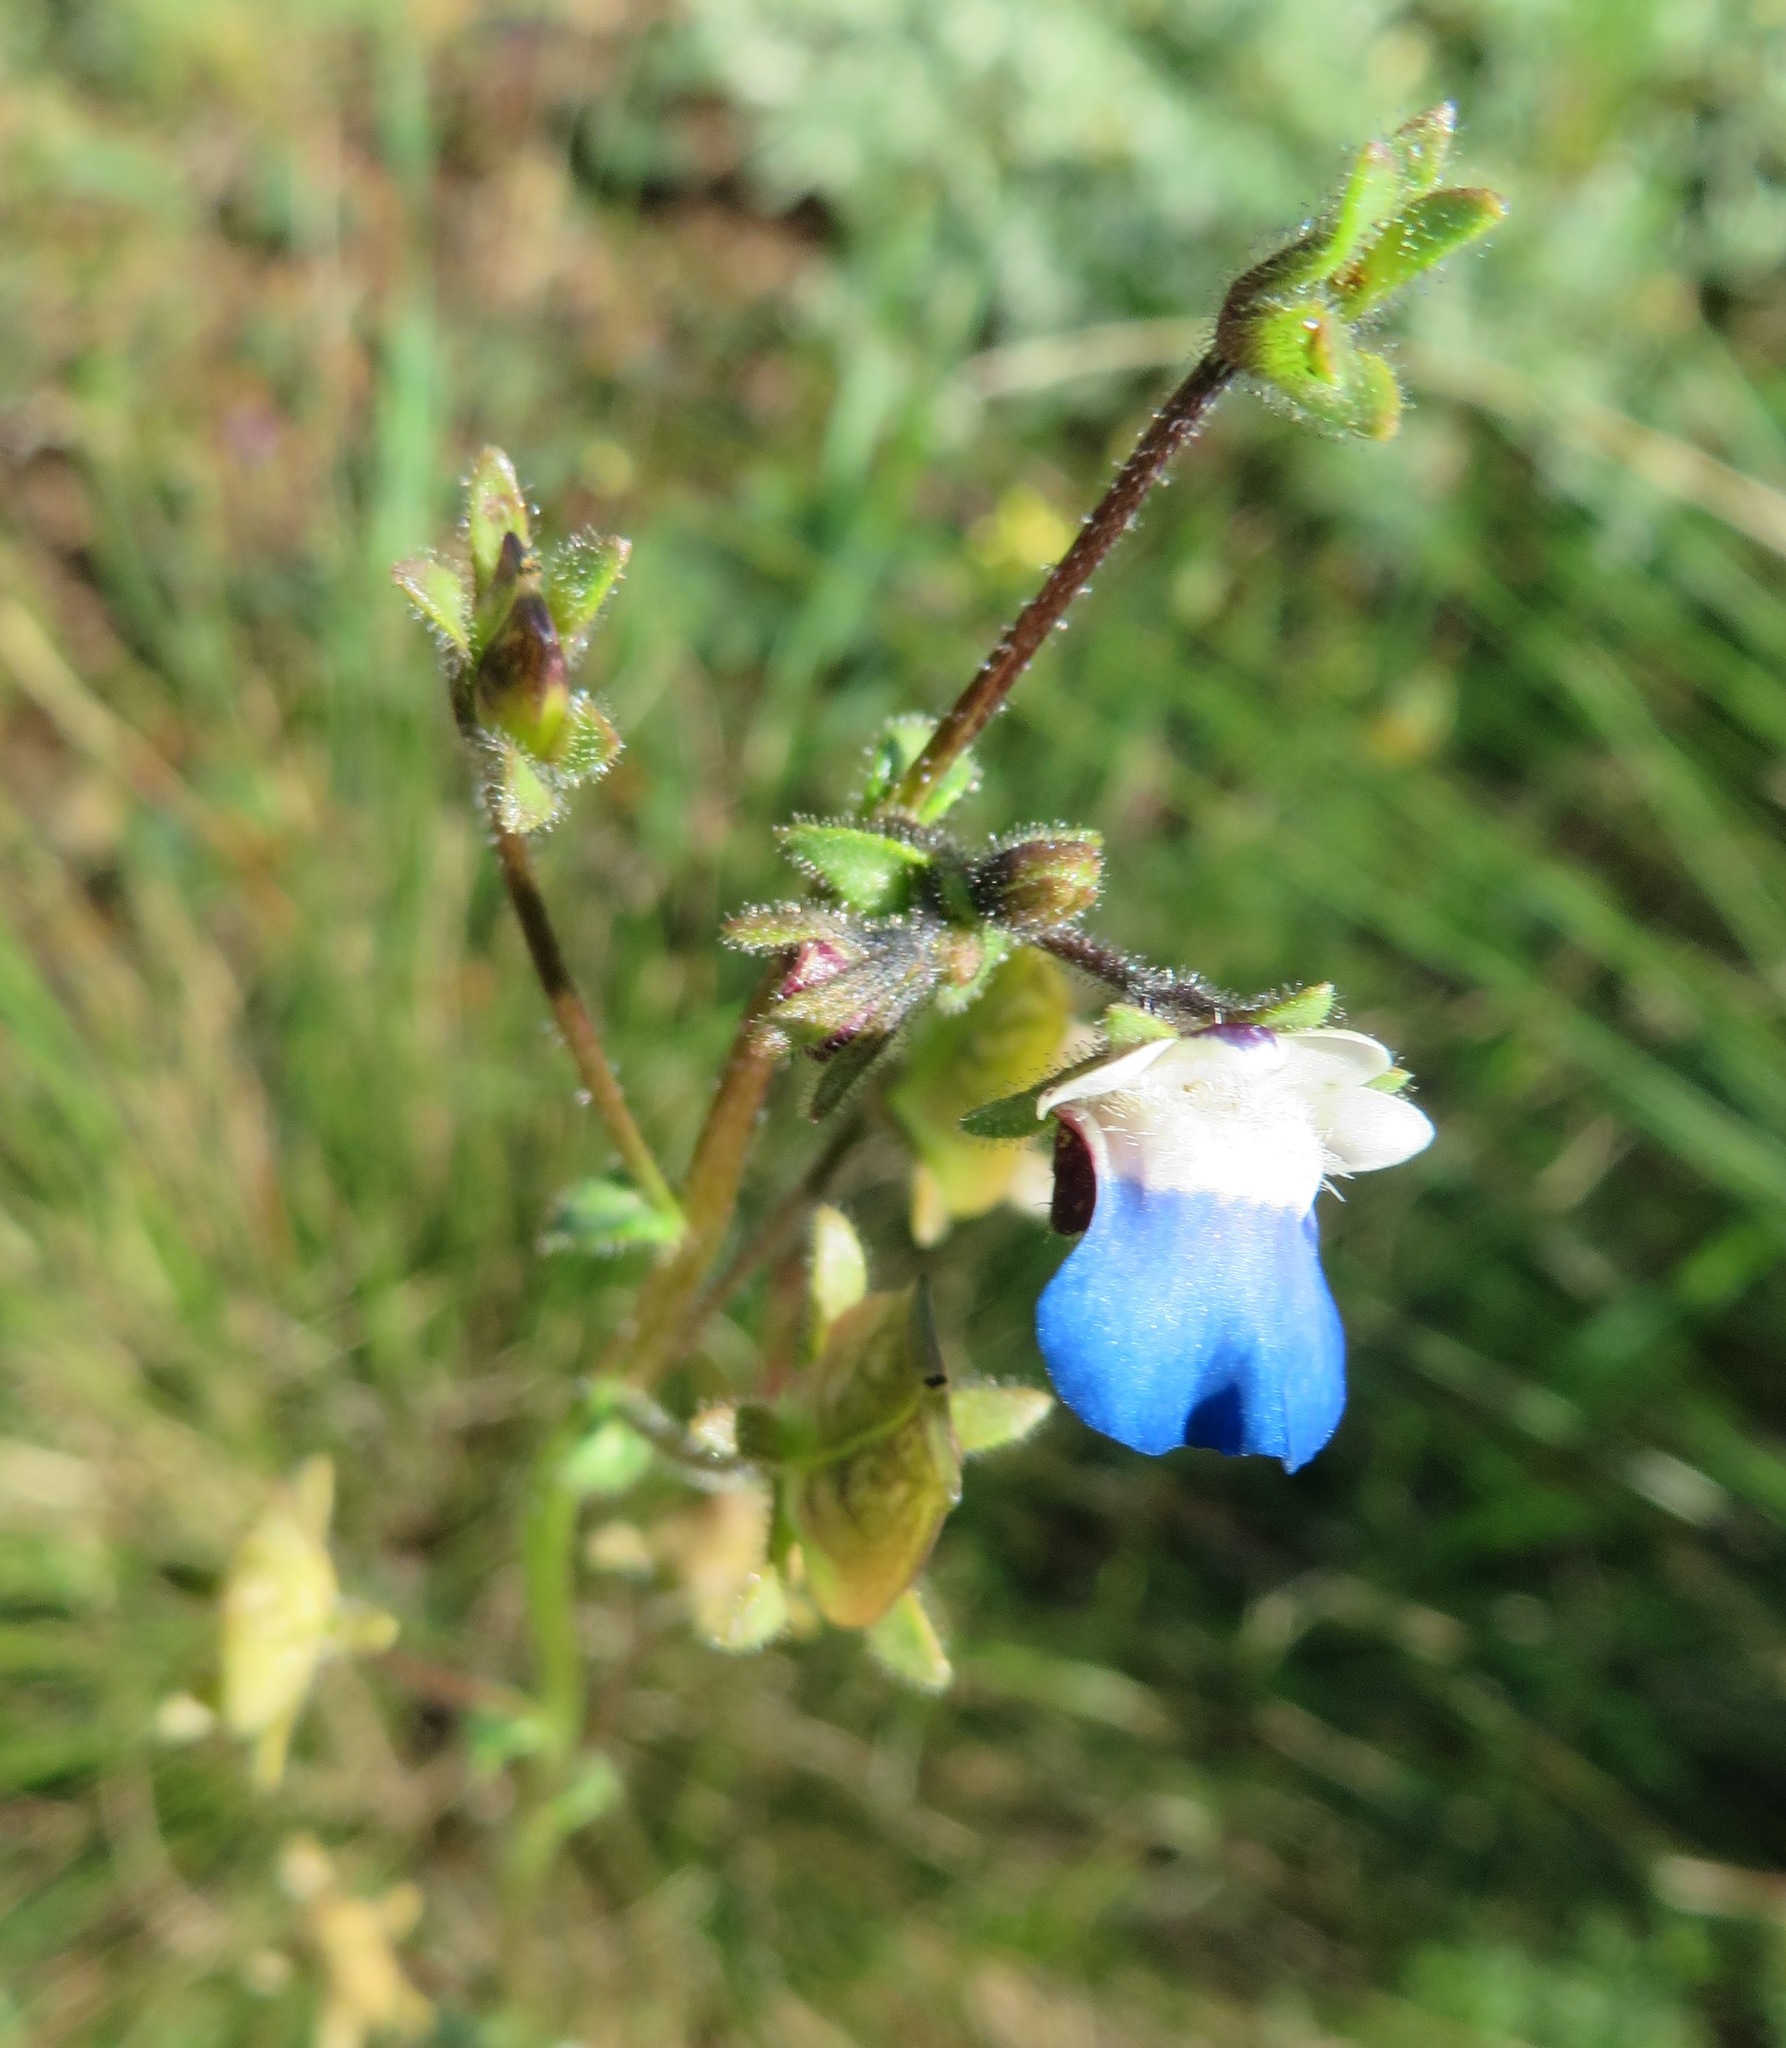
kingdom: Plantae
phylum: Tracheophyta
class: Magnoliopsida
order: Lamiales
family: Scrophulariaceae
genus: Nemesia
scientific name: Nemesia barbata
